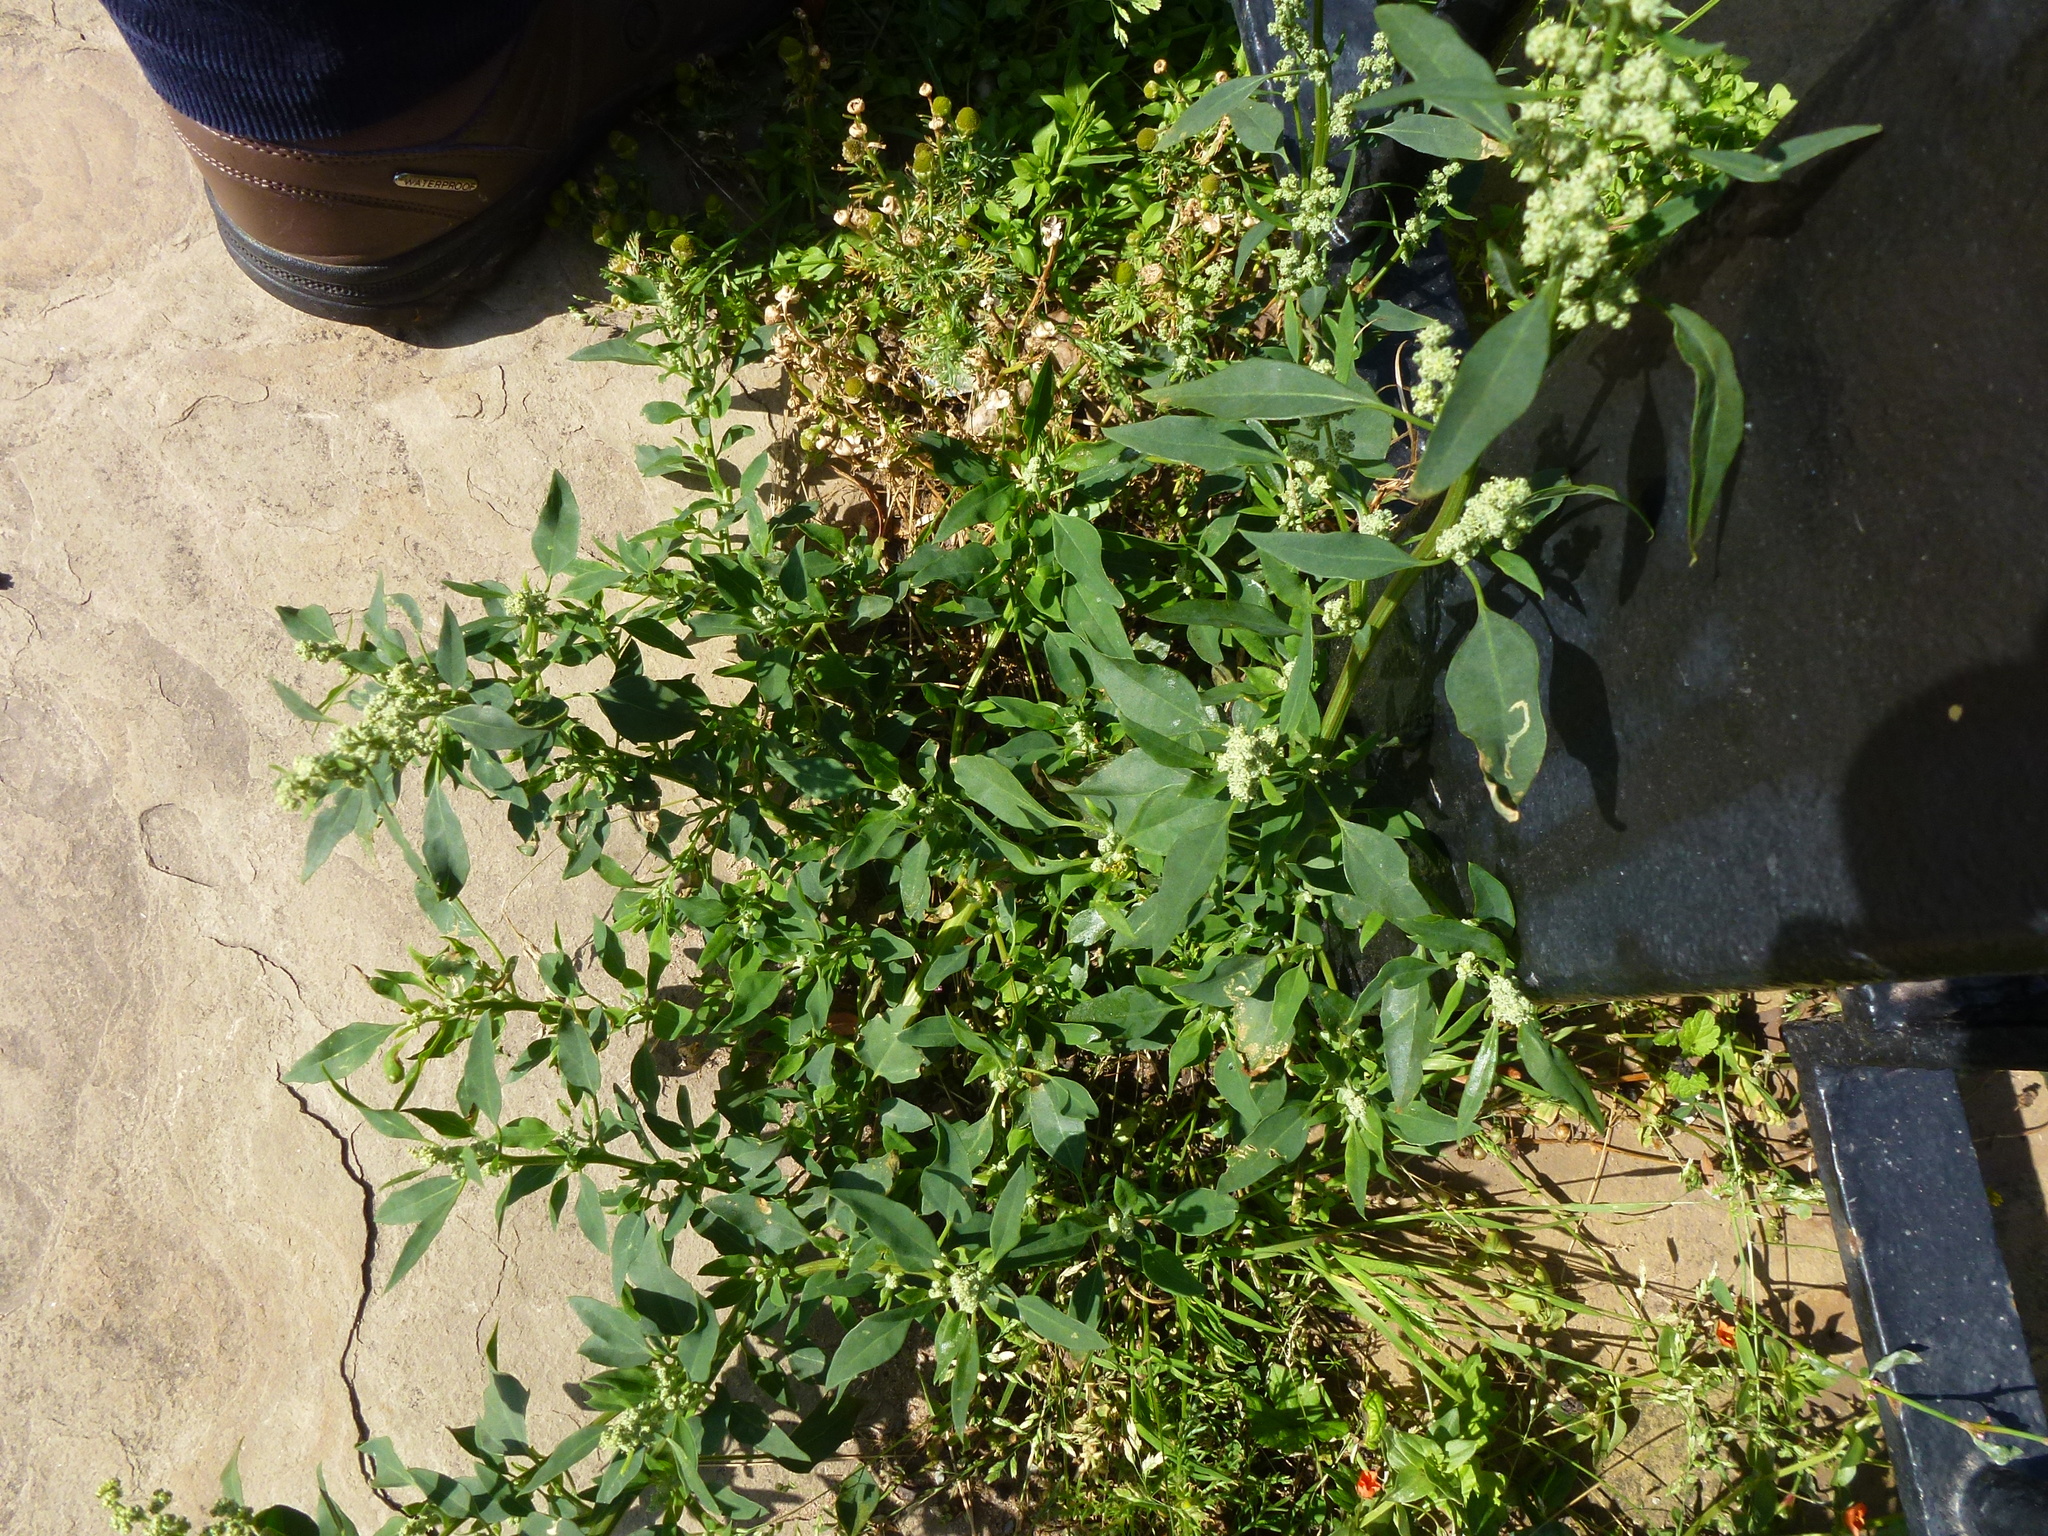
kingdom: Plantae
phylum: Tracheophyta
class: Magnoliopsida
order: Caryophyllales
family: Polygonaceae
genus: Polygonum
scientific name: Polygonum aviculare
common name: Prostrate knotweed
